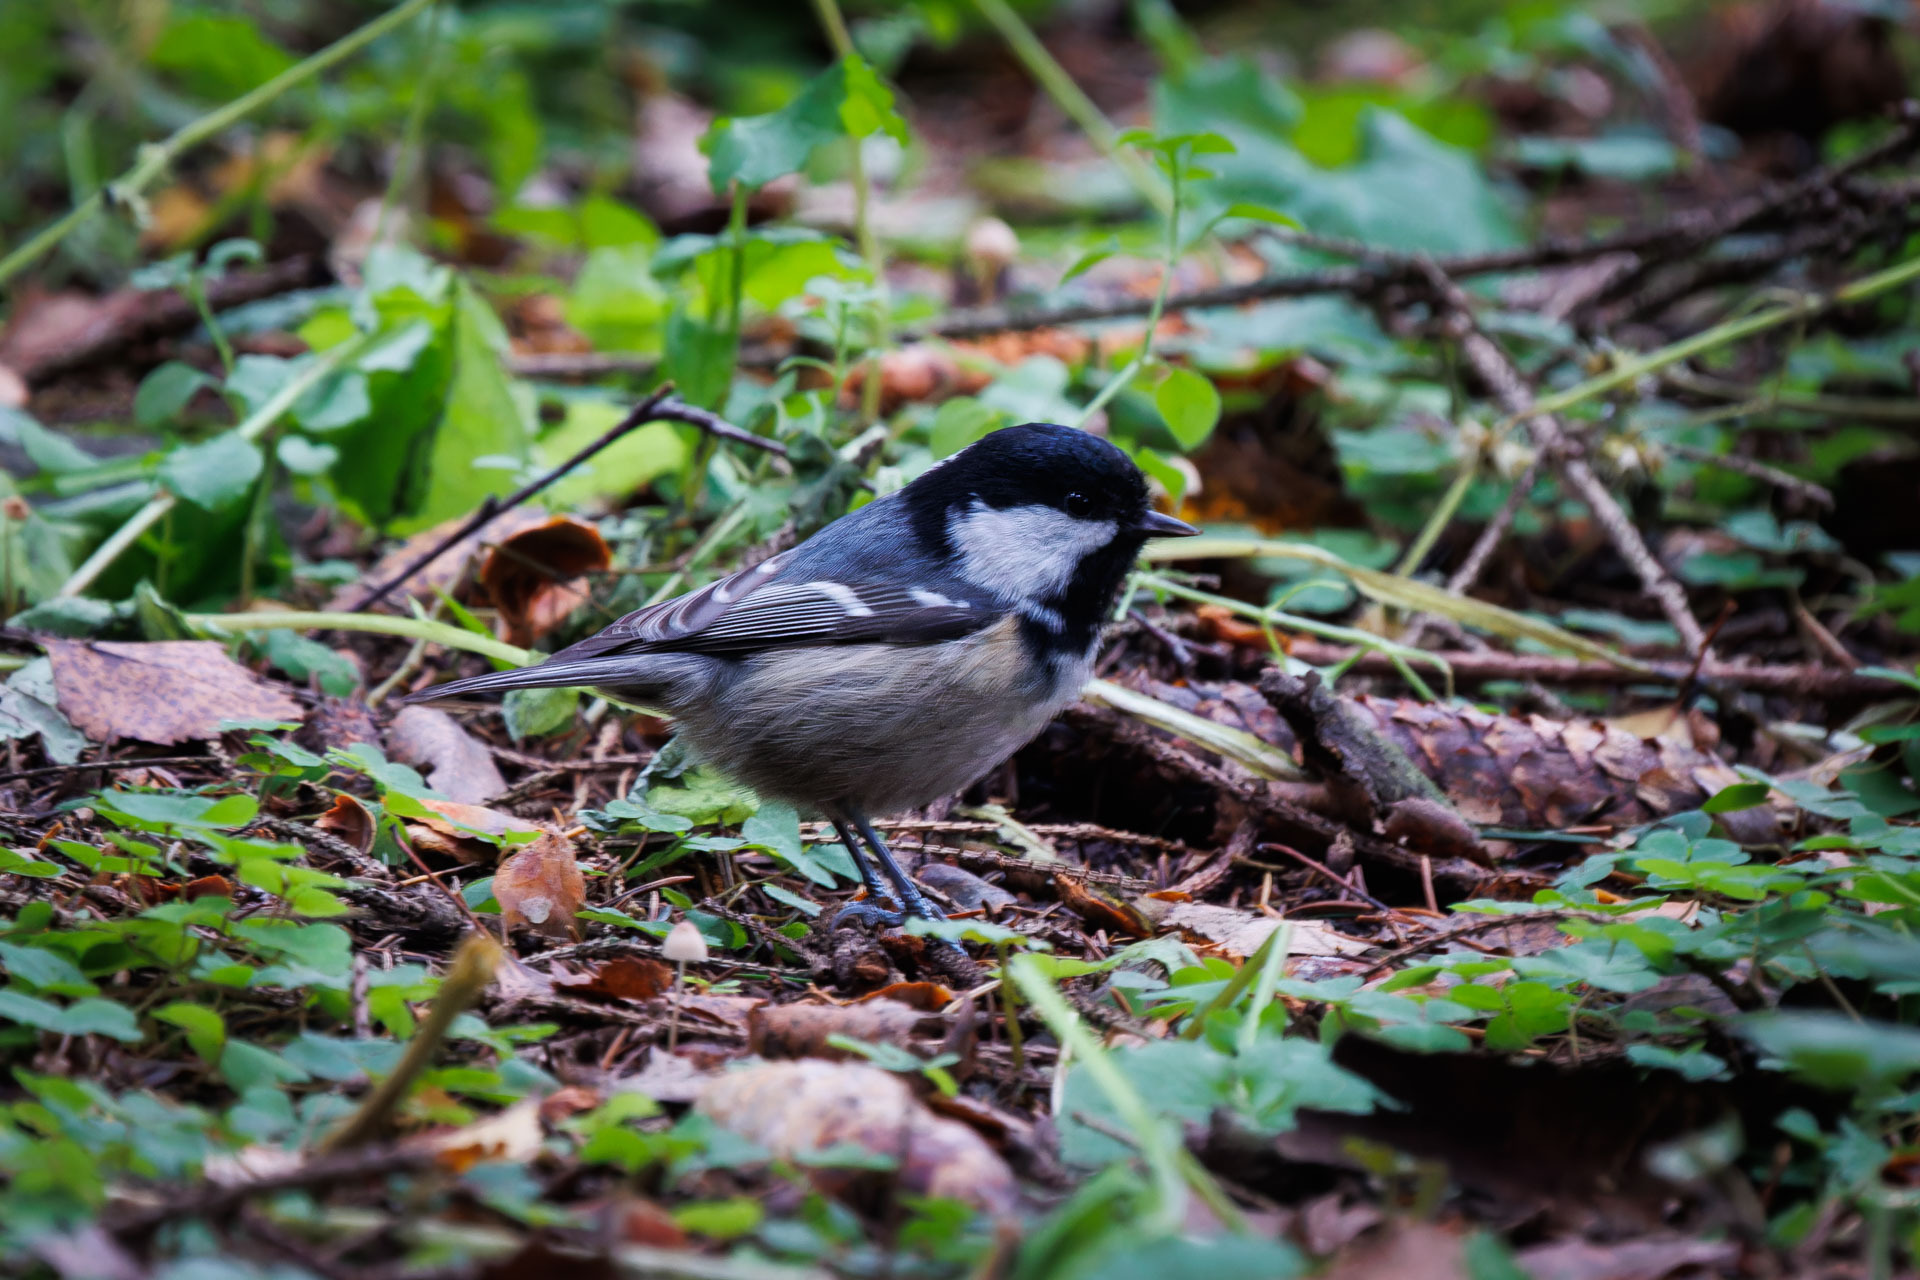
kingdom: Animalia
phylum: Chordata
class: Aves
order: Passeriformes
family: Paridae
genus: Periparus
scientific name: Periparus ater
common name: Coal tit
